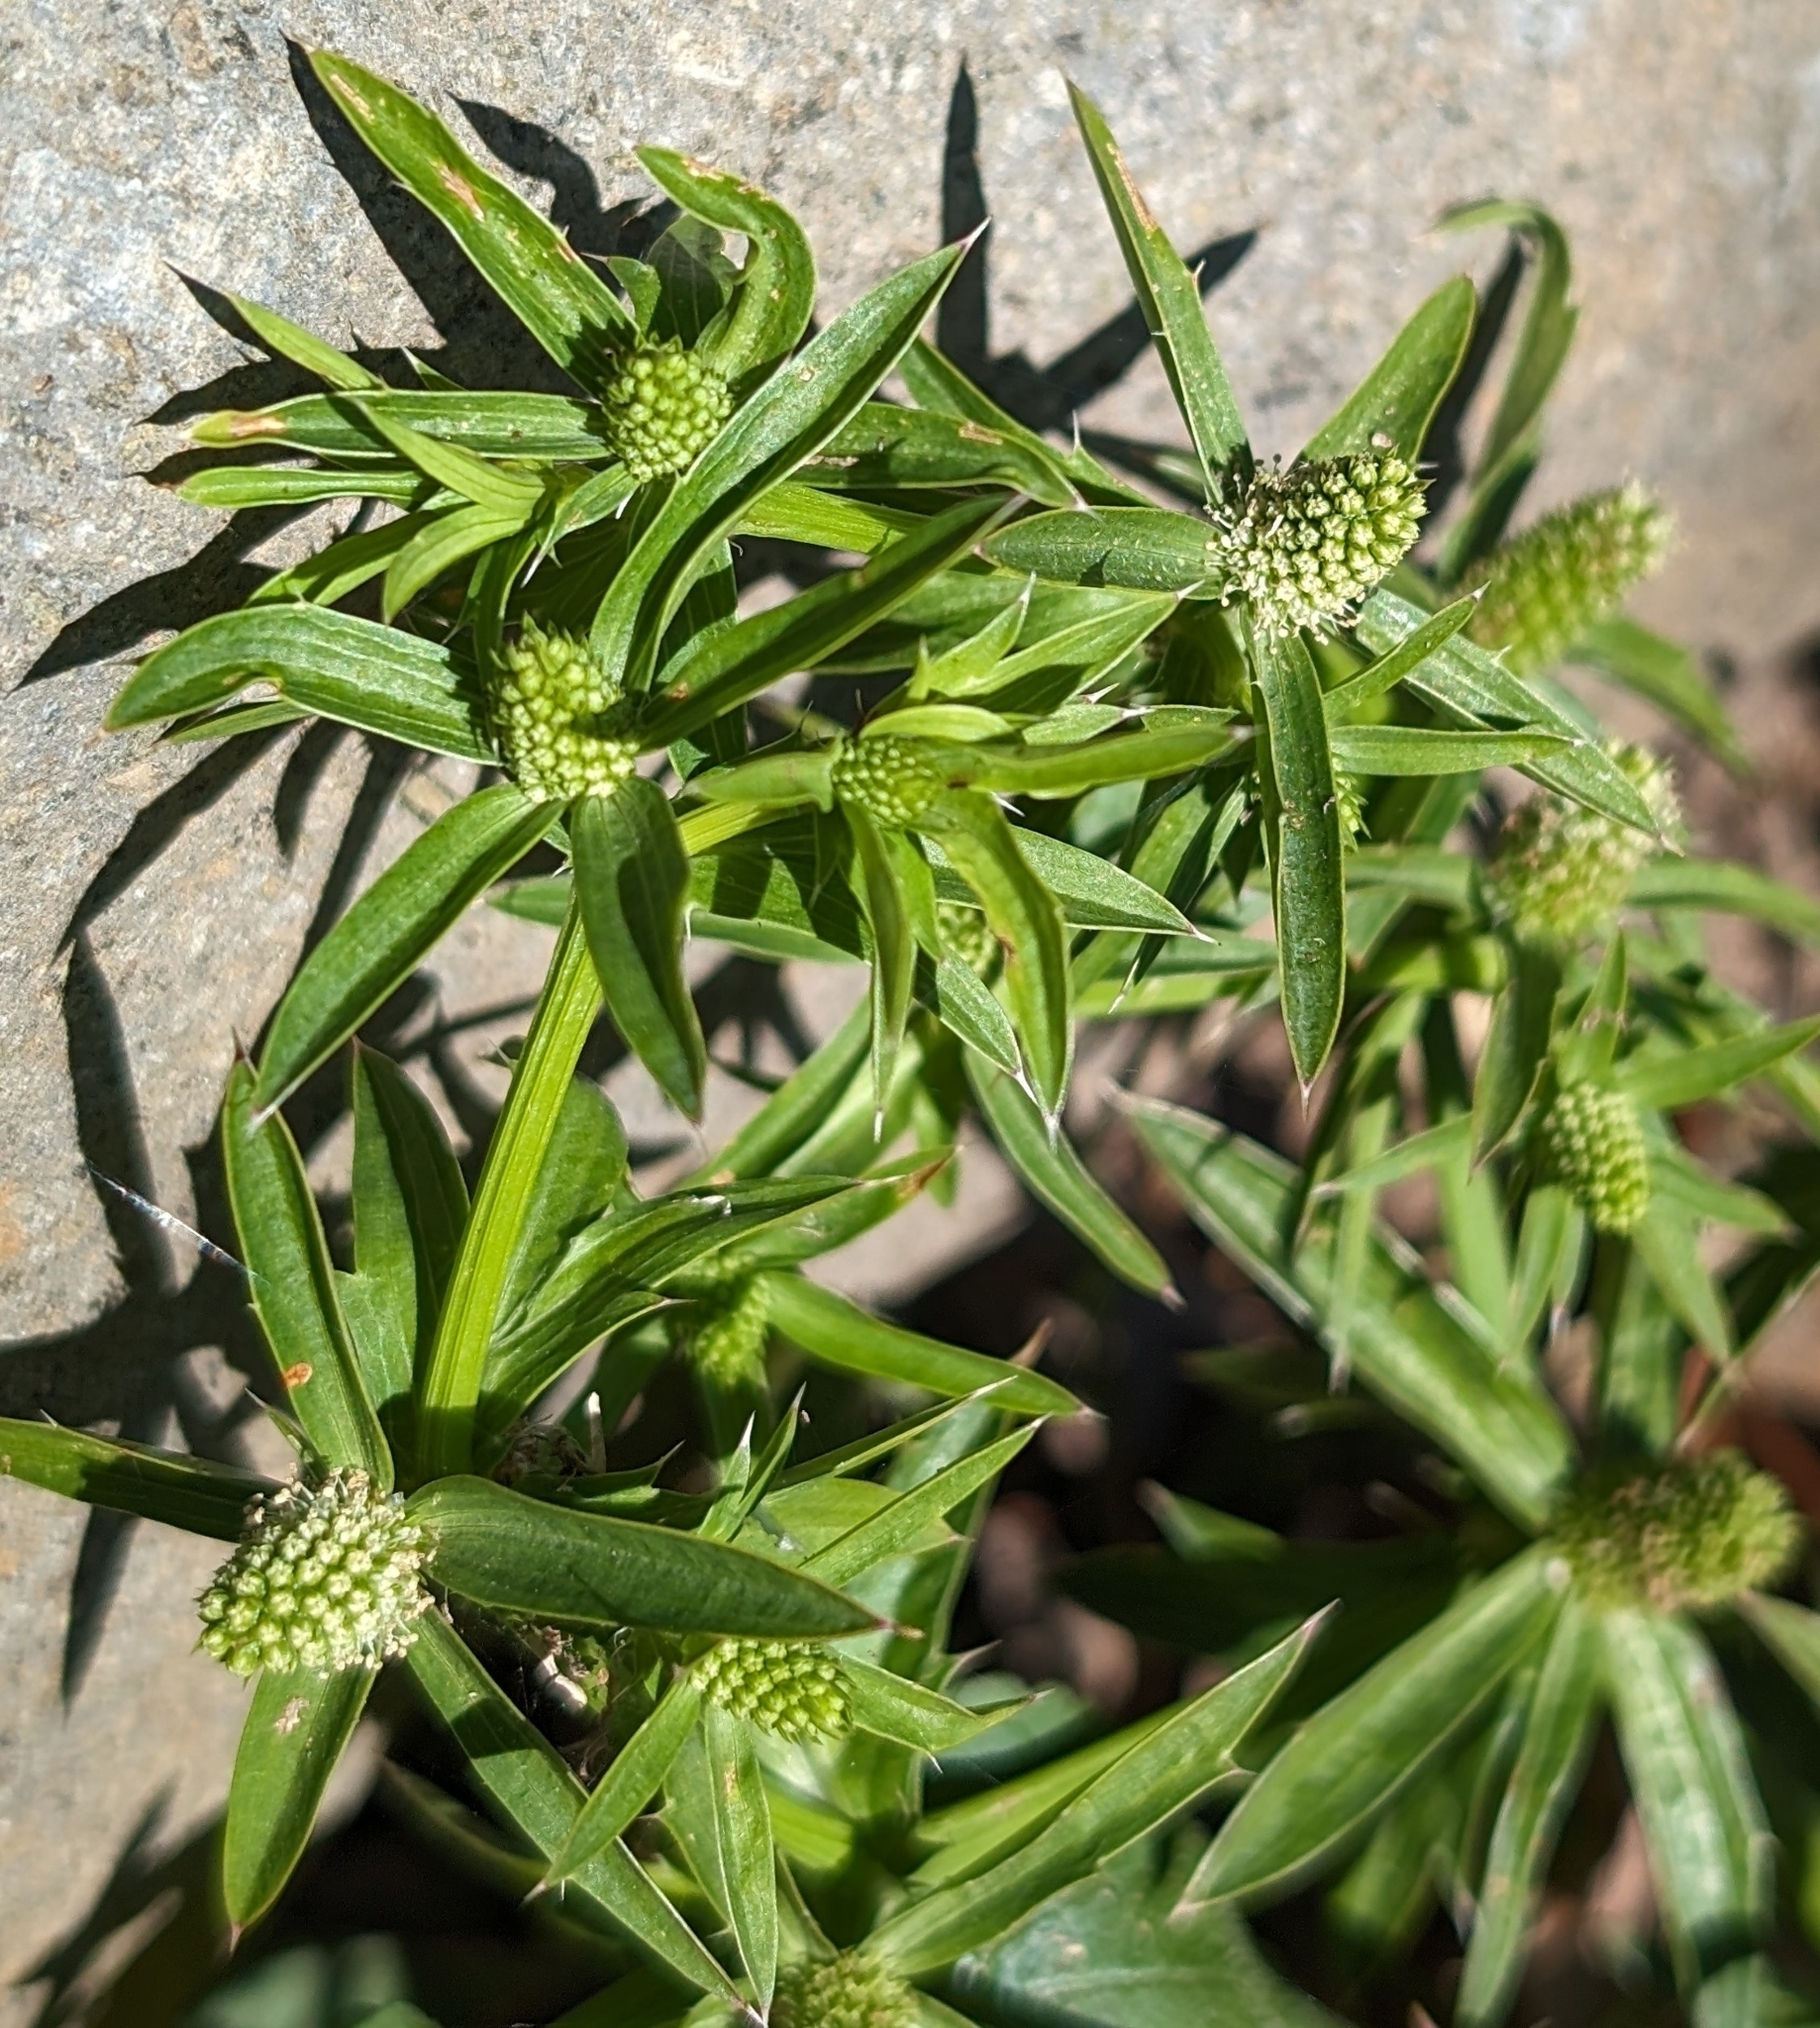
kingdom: Plantae
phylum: Tracheophyta
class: Magnoliopsida
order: Apiales
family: Apiaceae
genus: Eryngium
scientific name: Eryngium foetidum
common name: Fitweed
